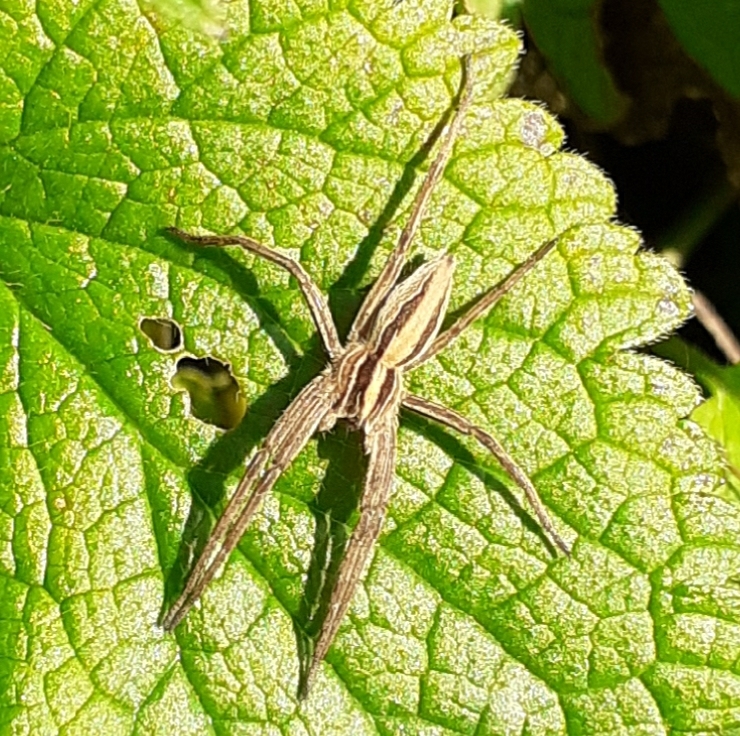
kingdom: Animalia
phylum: Arthropoda
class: Arachnida
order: Araneae
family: Pisauridae
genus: Pisaura
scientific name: Pisaura mirabilis
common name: Tent spider
